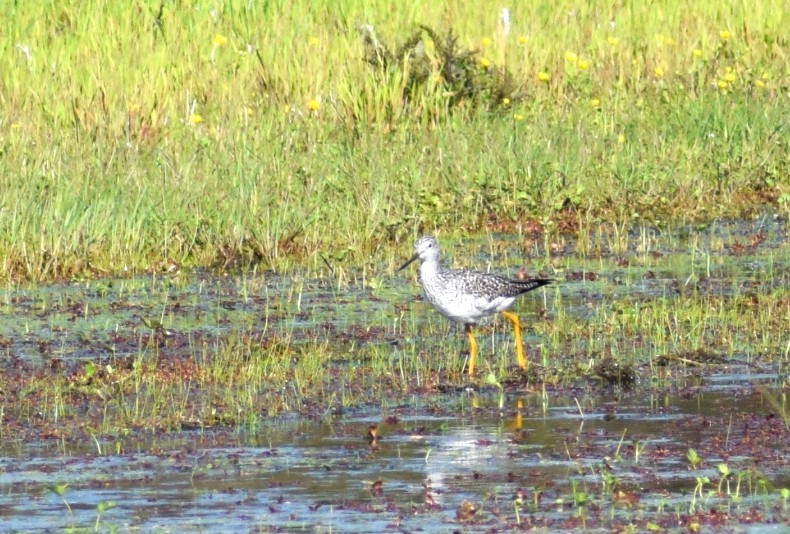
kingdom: Animalia
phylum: Chordata
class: Aves
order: Charadriiformes
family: Scolopacidae
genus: Tringa
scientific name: Tringa melanoleuca
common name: Greater yellowlegs
